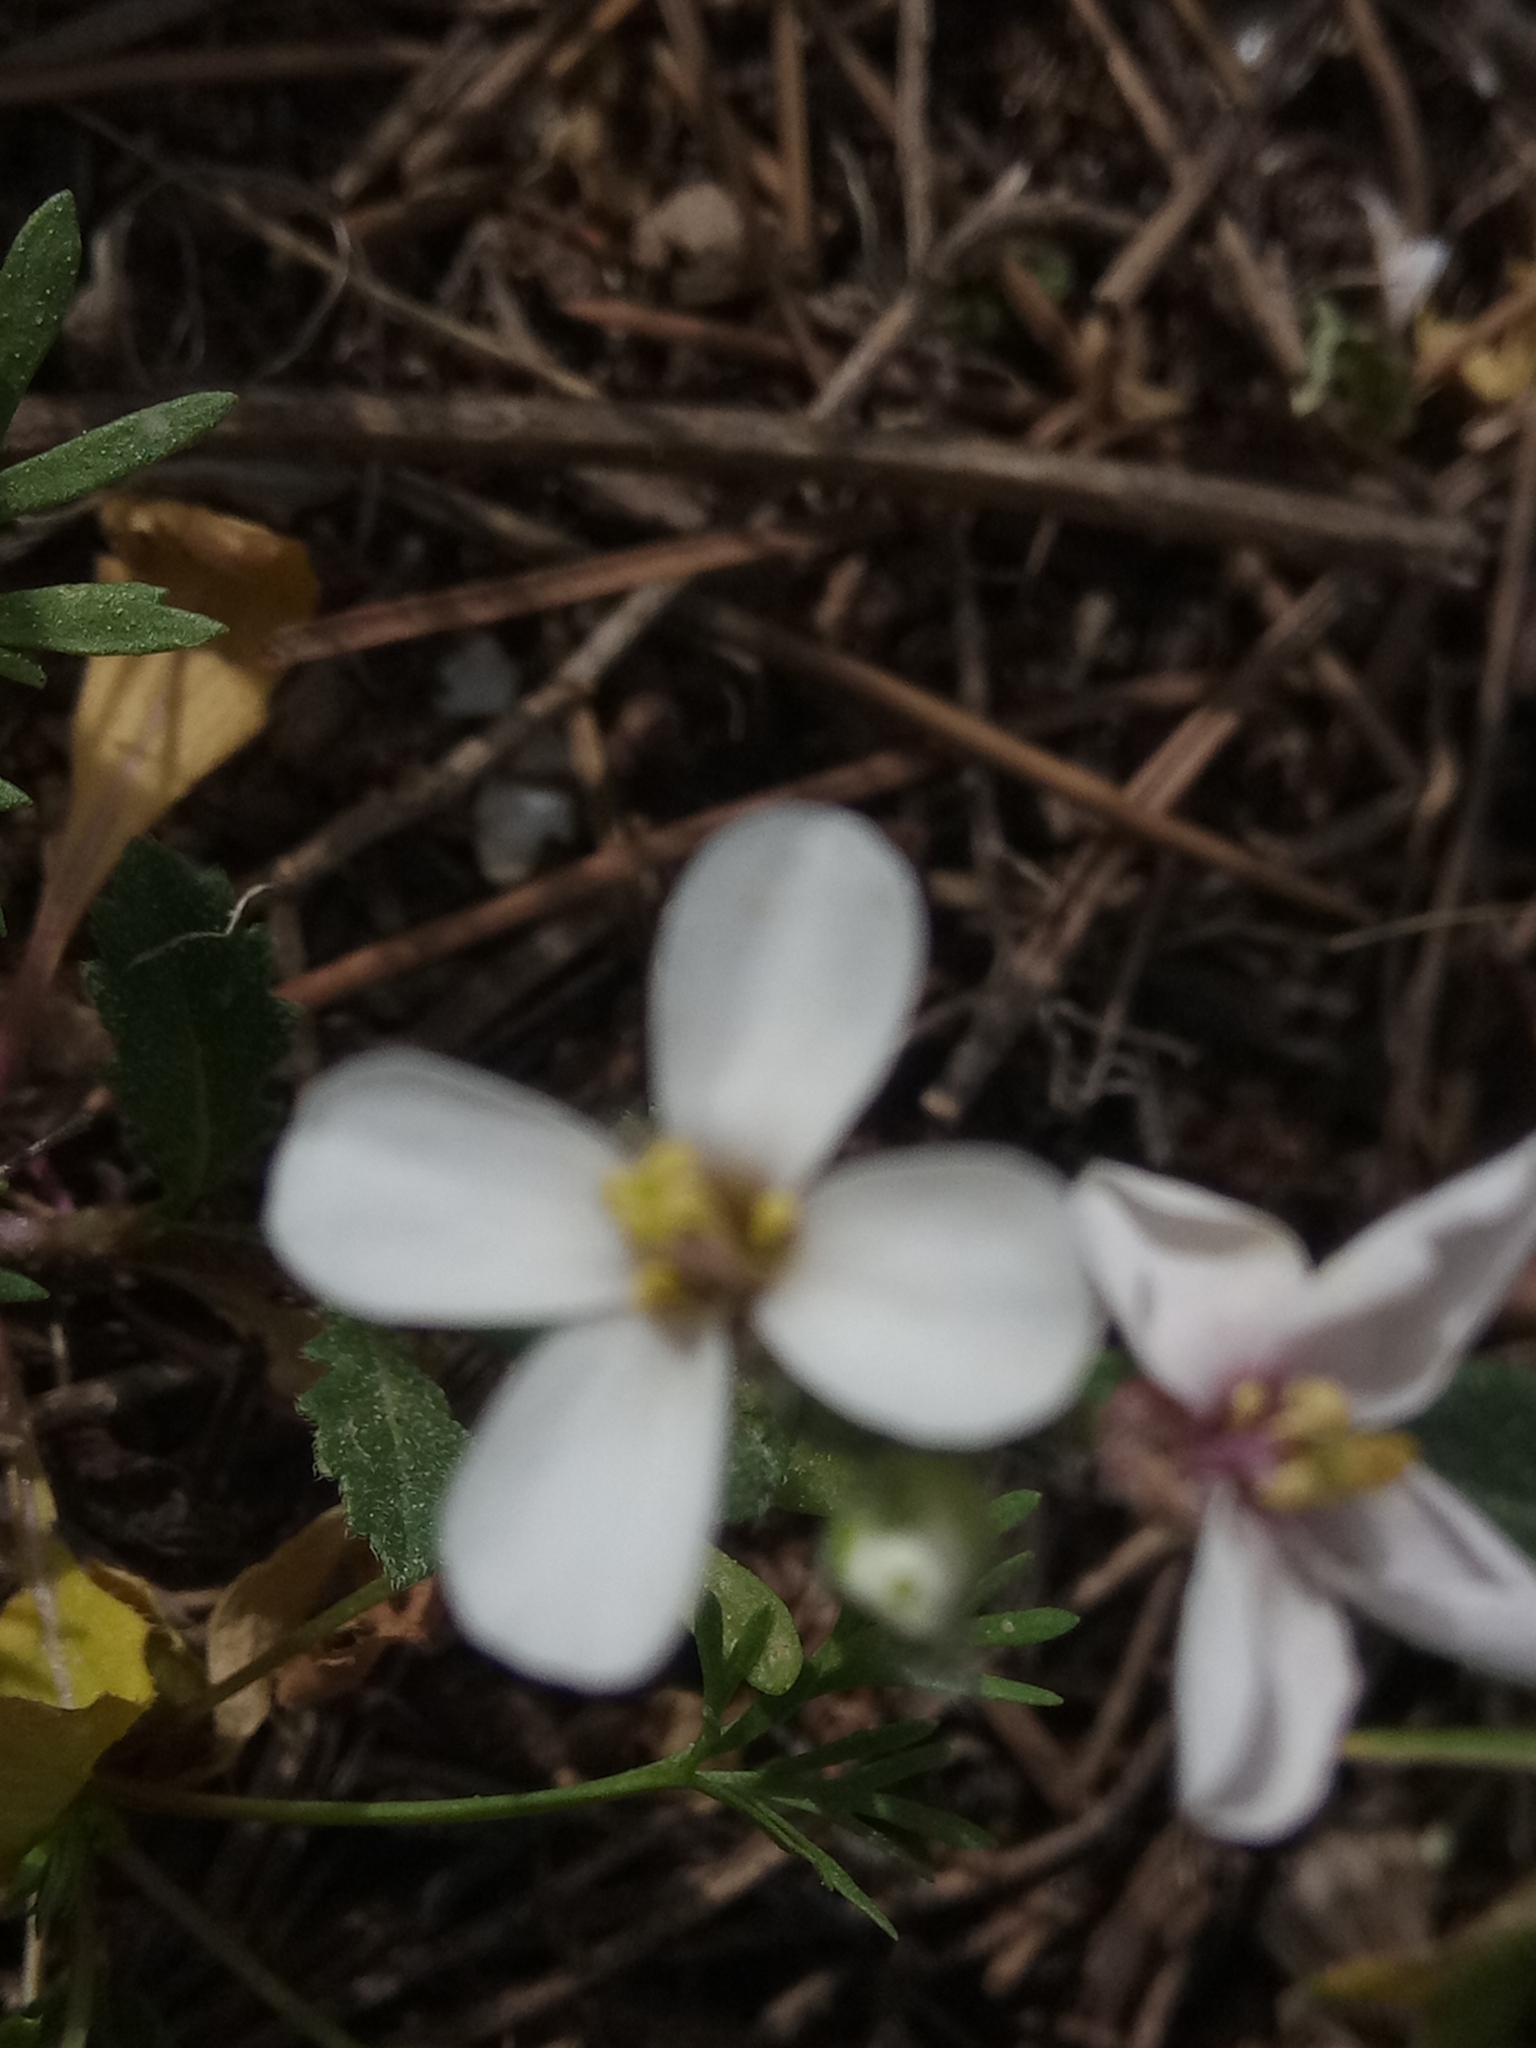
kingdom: Plantae
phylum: Tracheophyta
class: Magnoliopsida
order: Brassicales
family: Brassicaceae
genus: Diplotaxis
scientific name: Diplotaxis erucoides
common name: White rocket
